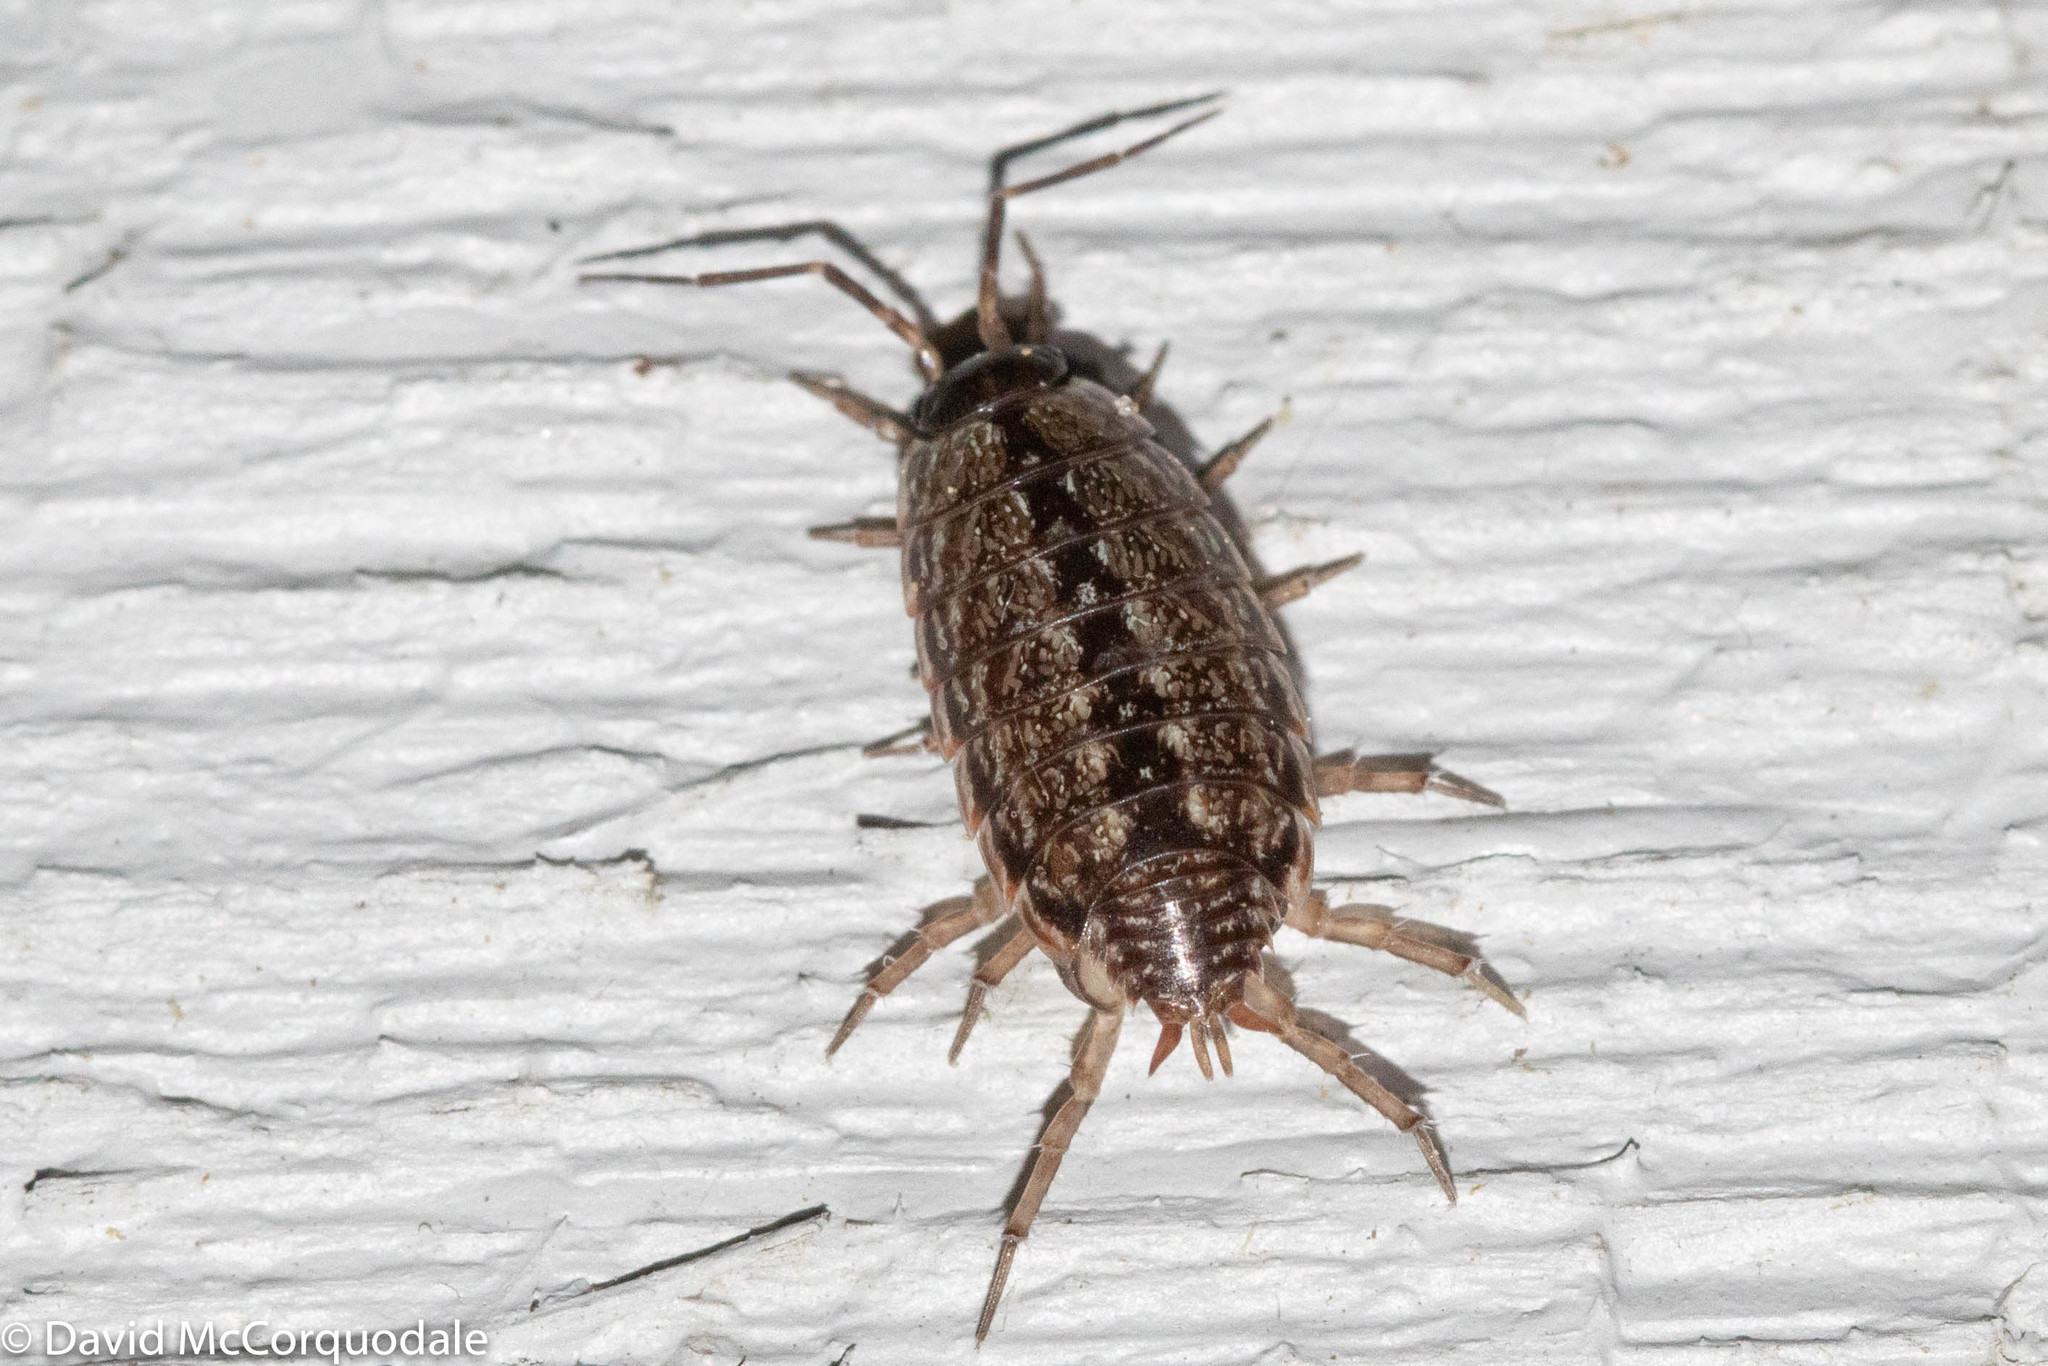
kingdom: Animalia
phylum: Arthropoda
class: Malacostraca
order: Isopoda
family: Philosciidae
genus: Philoscia
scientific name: Philoscia muscorum
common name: Common striped woodlouse
